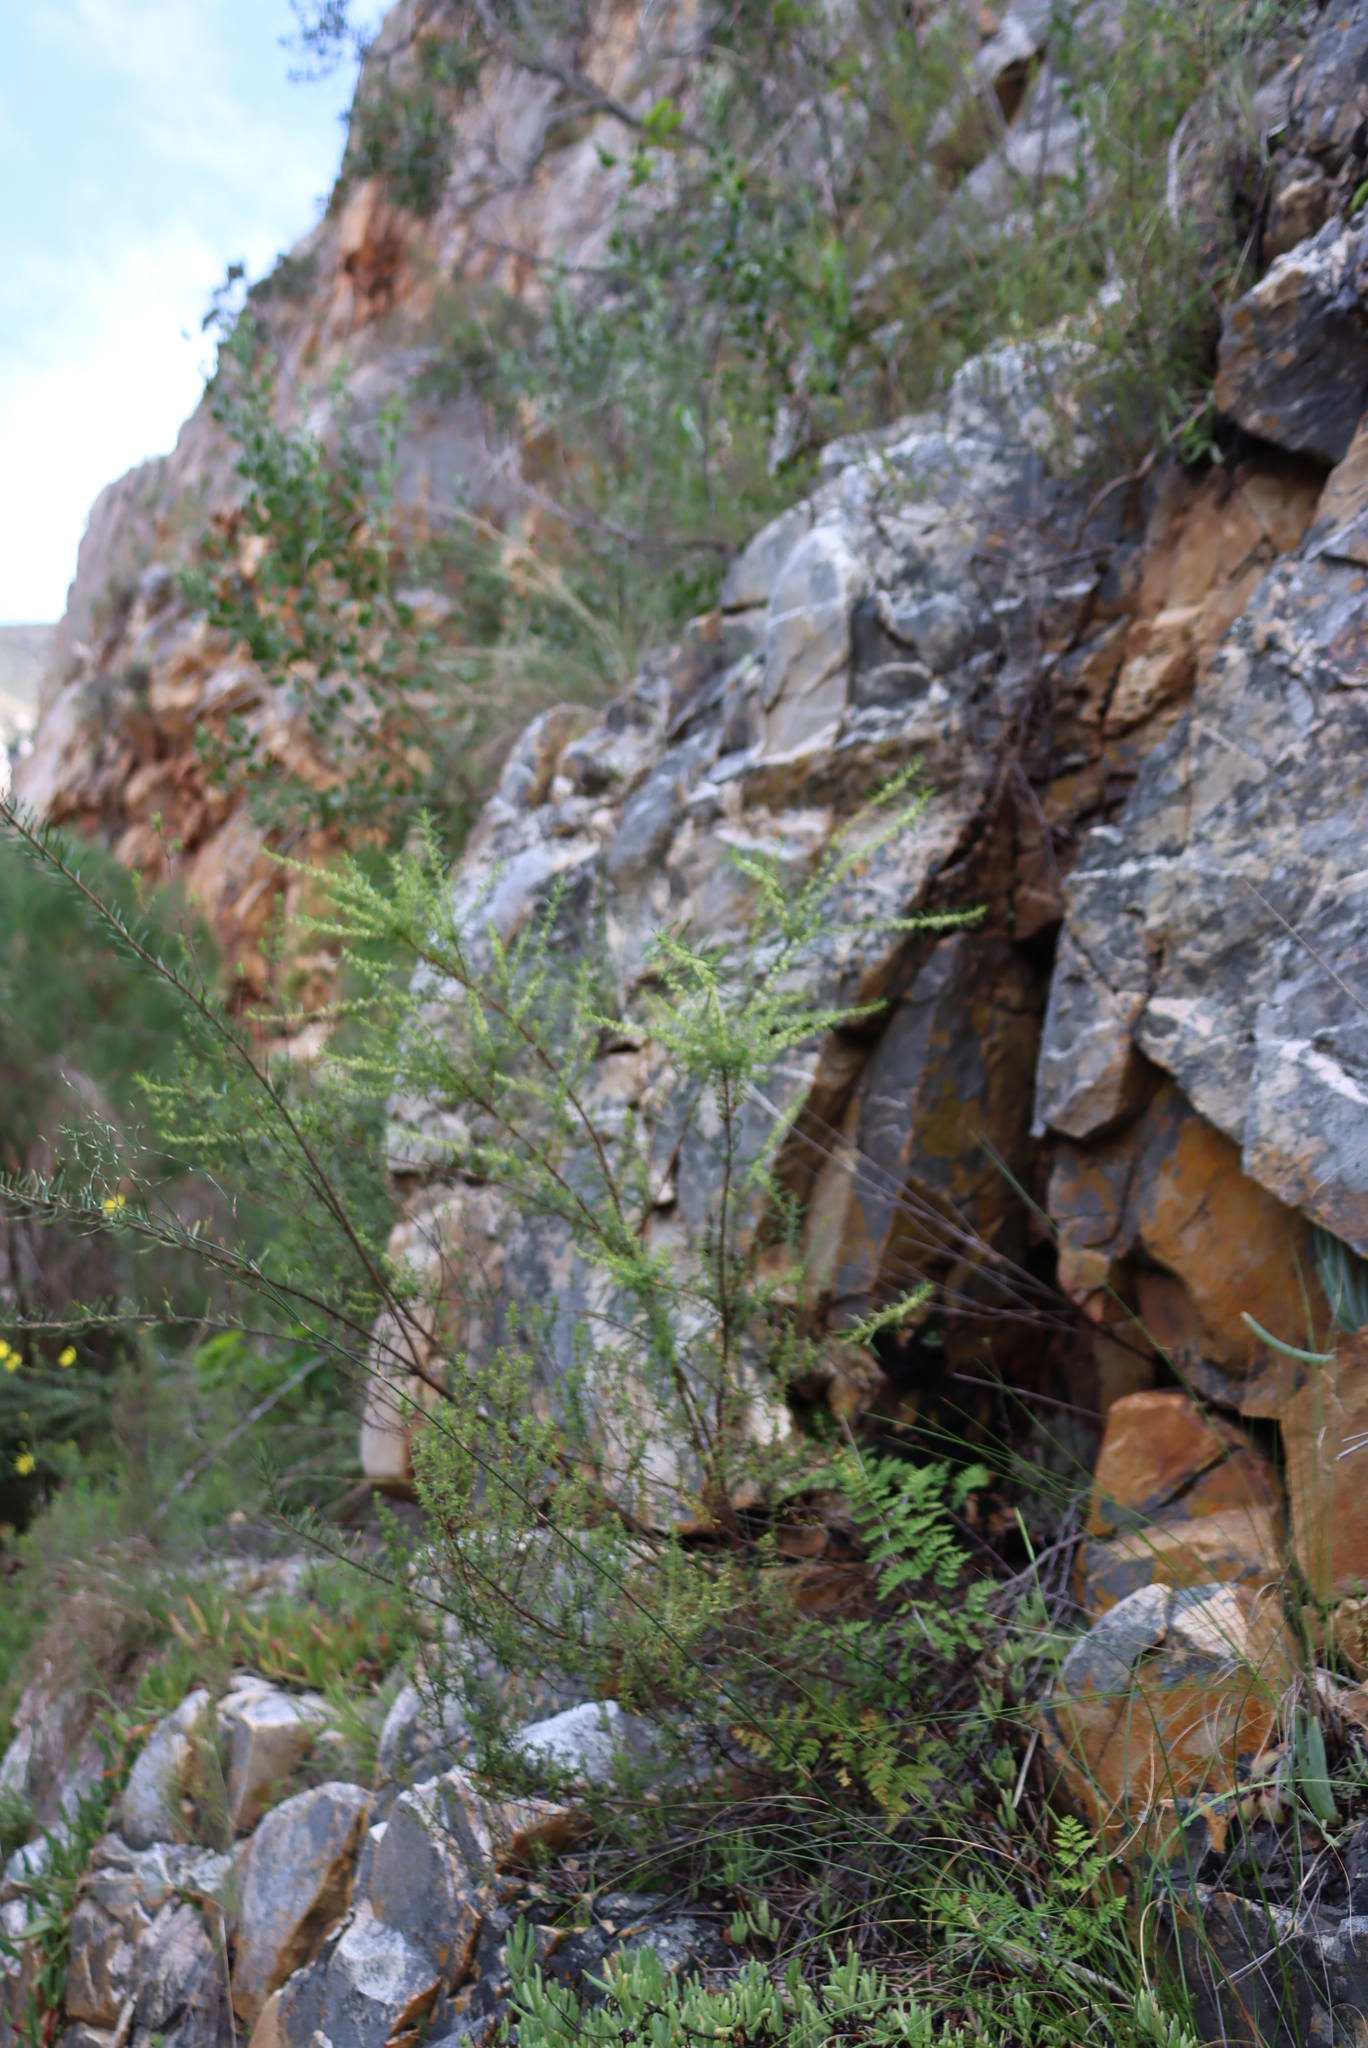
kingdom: Plantae
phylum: Tracheophyta
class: Magnoliopsida
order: Malpighiales
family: Peraceae
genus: Clutia
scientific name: Clutia ericoides
